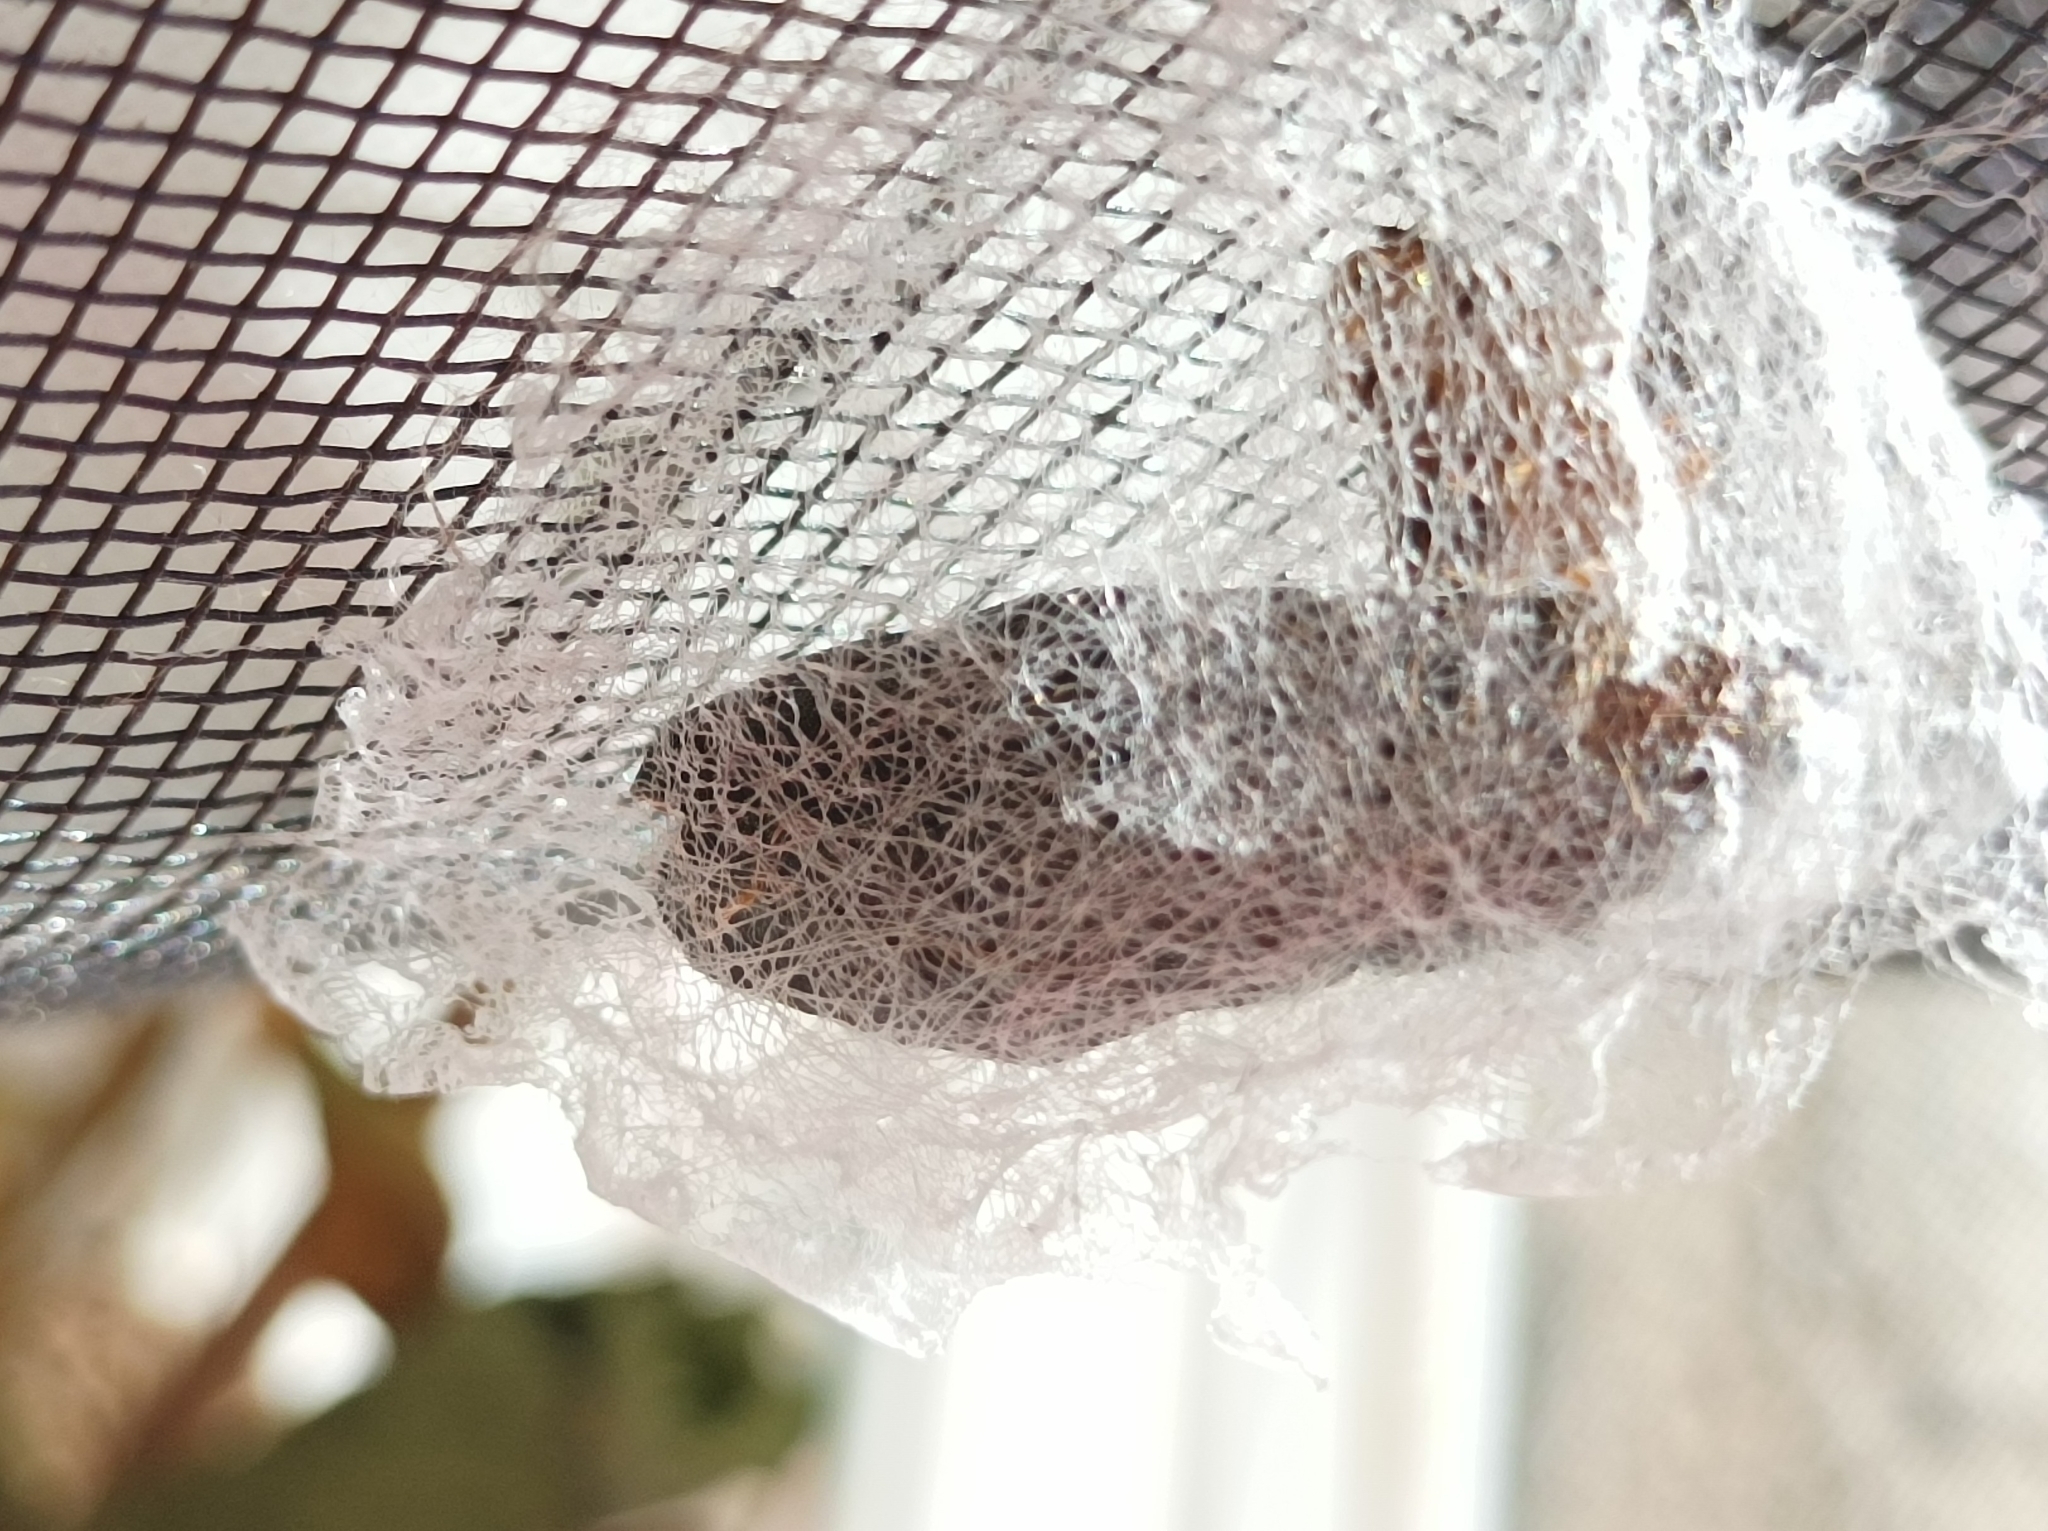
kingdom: Animalia
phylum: Arthropoda
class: Insecta
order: Lepidoptera
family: Erebidae
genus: Eudocima
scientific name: Eudocima phalonia
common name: Wasp
